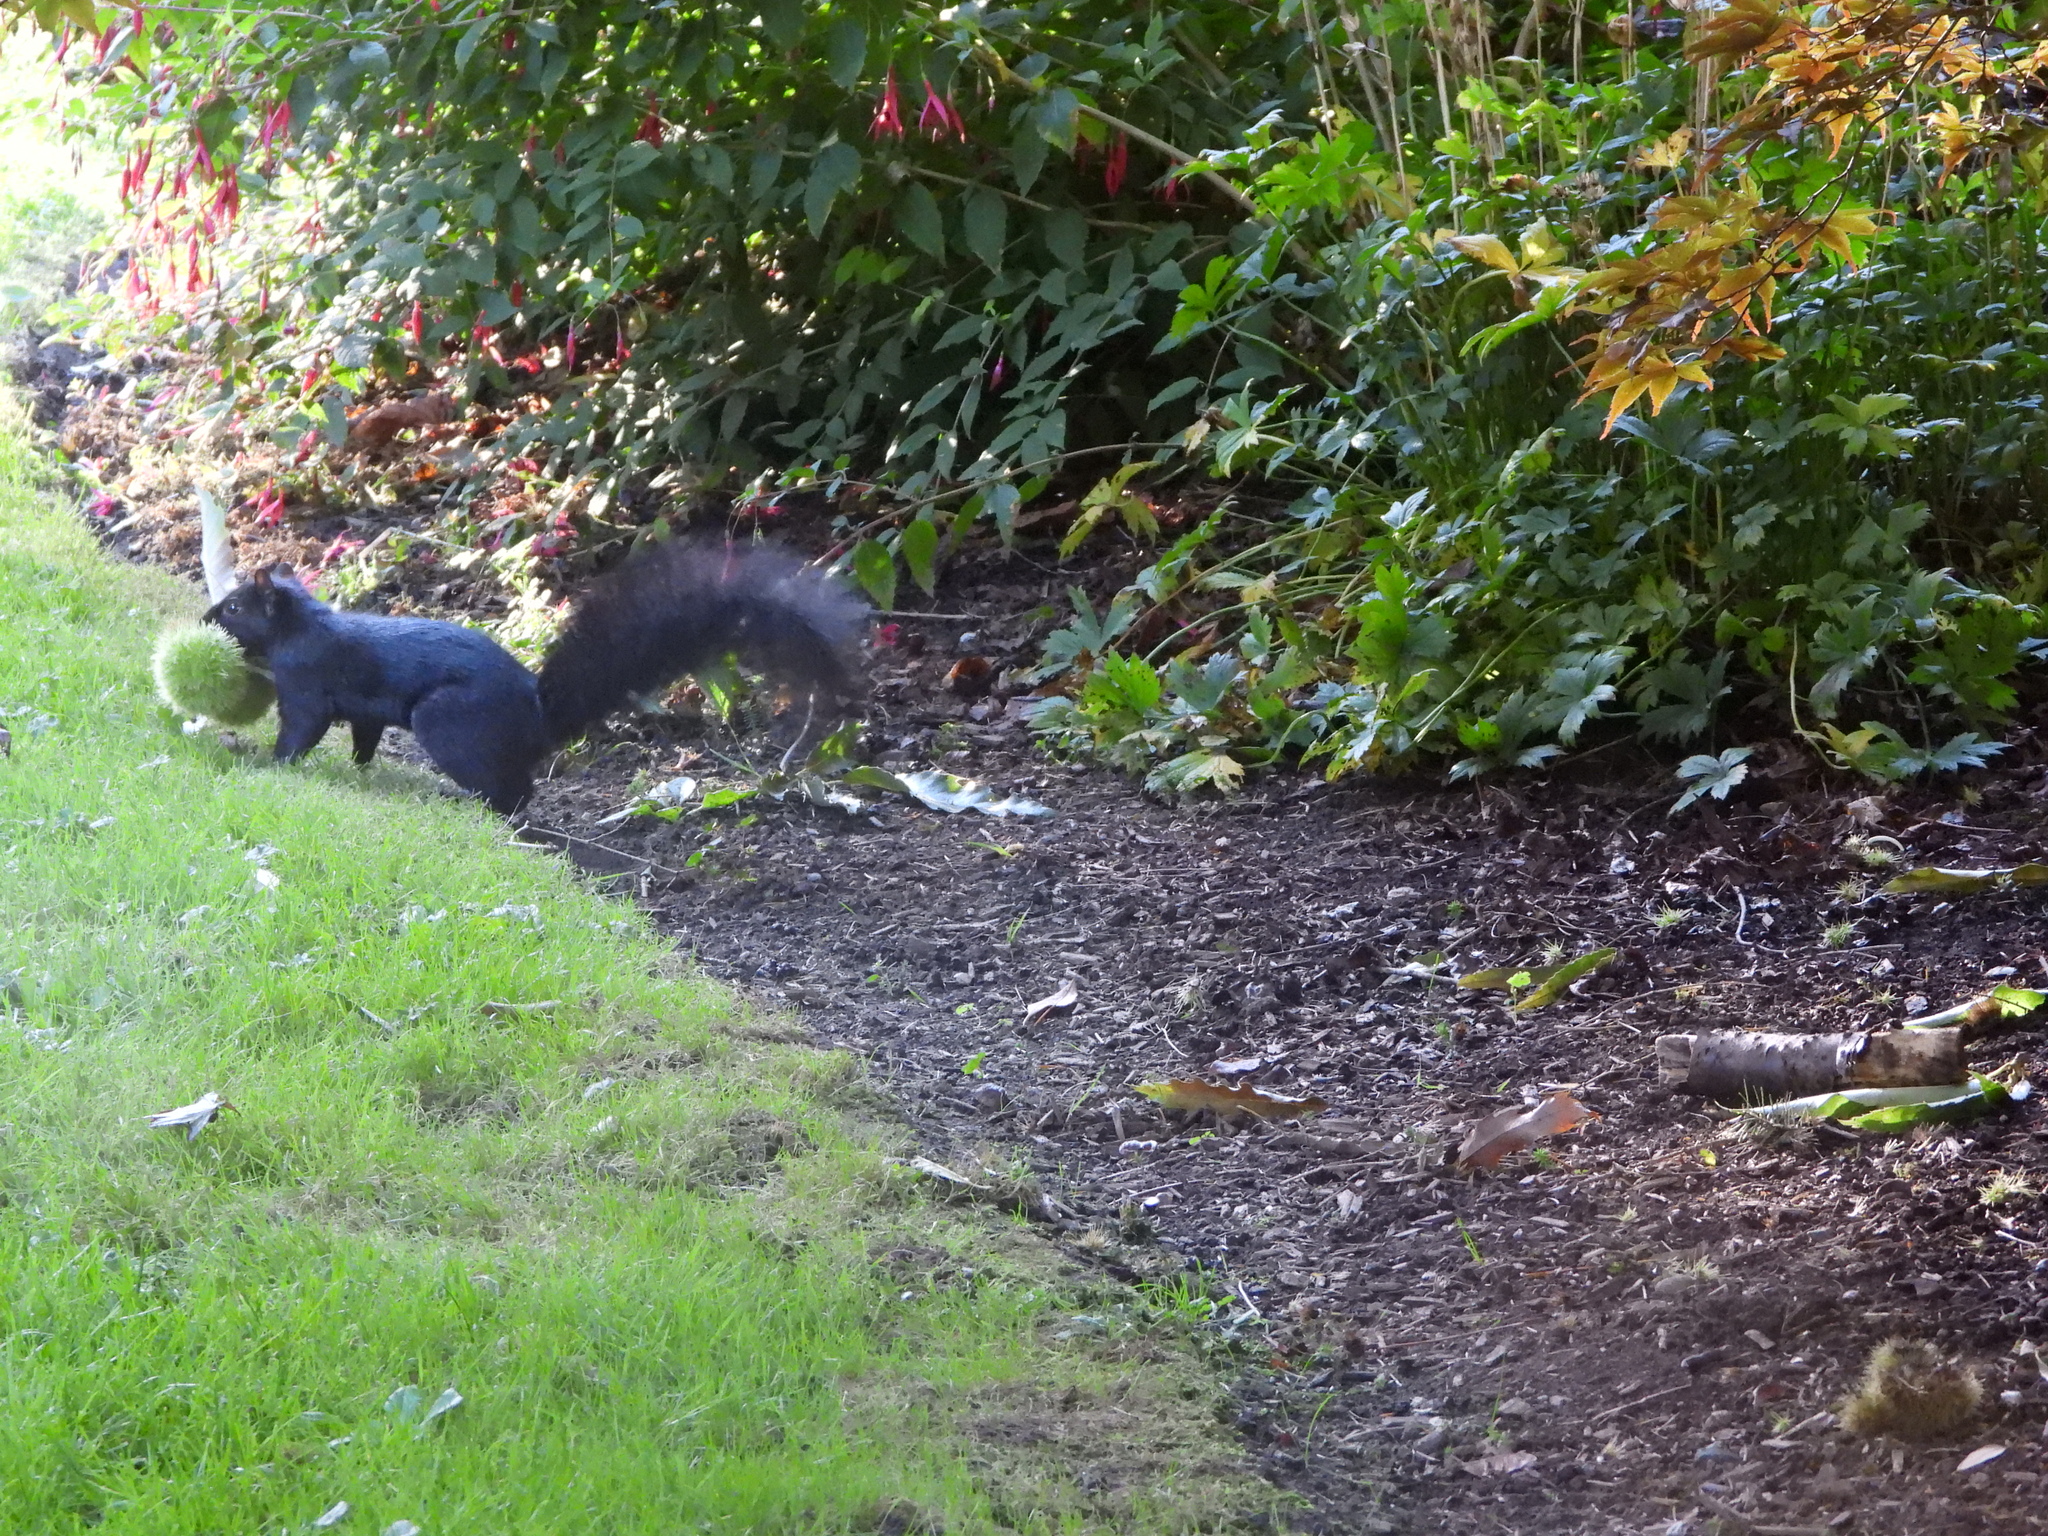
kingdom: Animalia
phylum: Chordata
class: Mammalia
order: Rodentia
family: Sciuridae
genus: Sciurus
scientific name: Sciurus carolinensis
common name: Eastern gray squirrel
